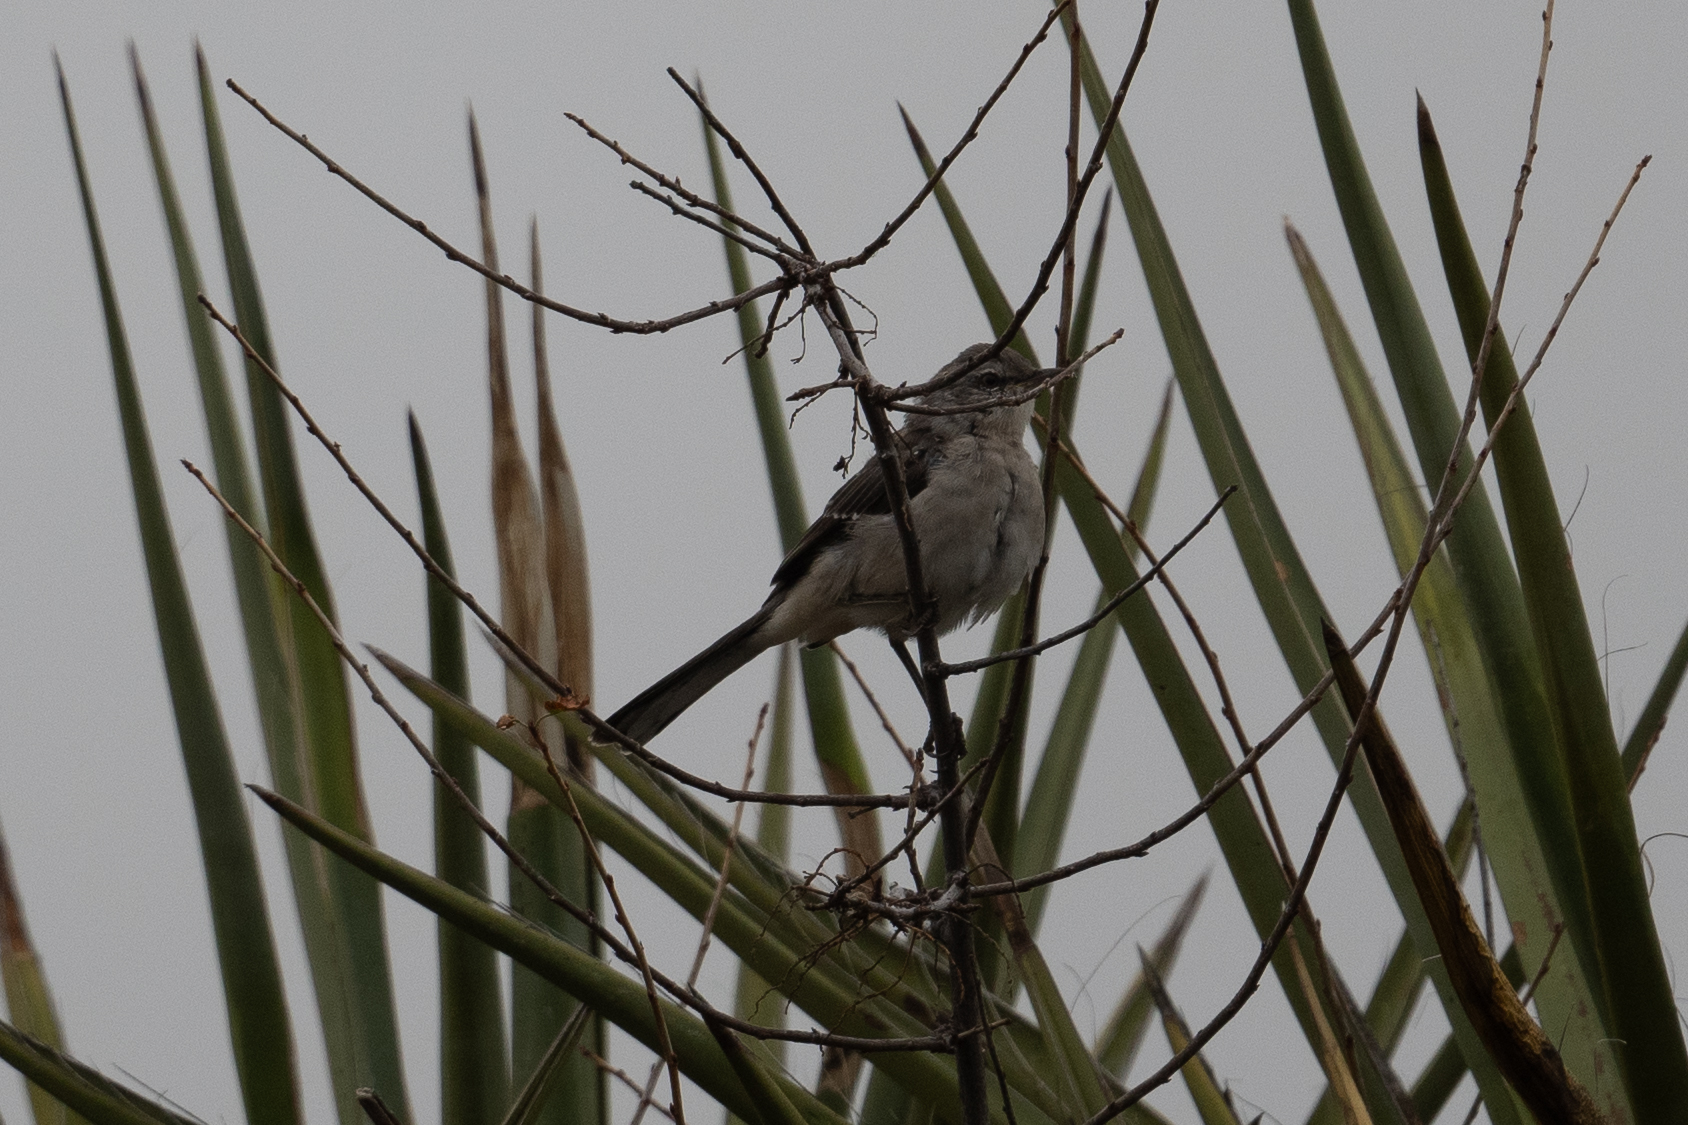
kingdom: Animalia
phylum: Chordata
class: Aves
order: Passeriformes
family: Mimidae
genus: Mimus
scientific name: Mimus polyglottos
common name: Northern mockingbird
